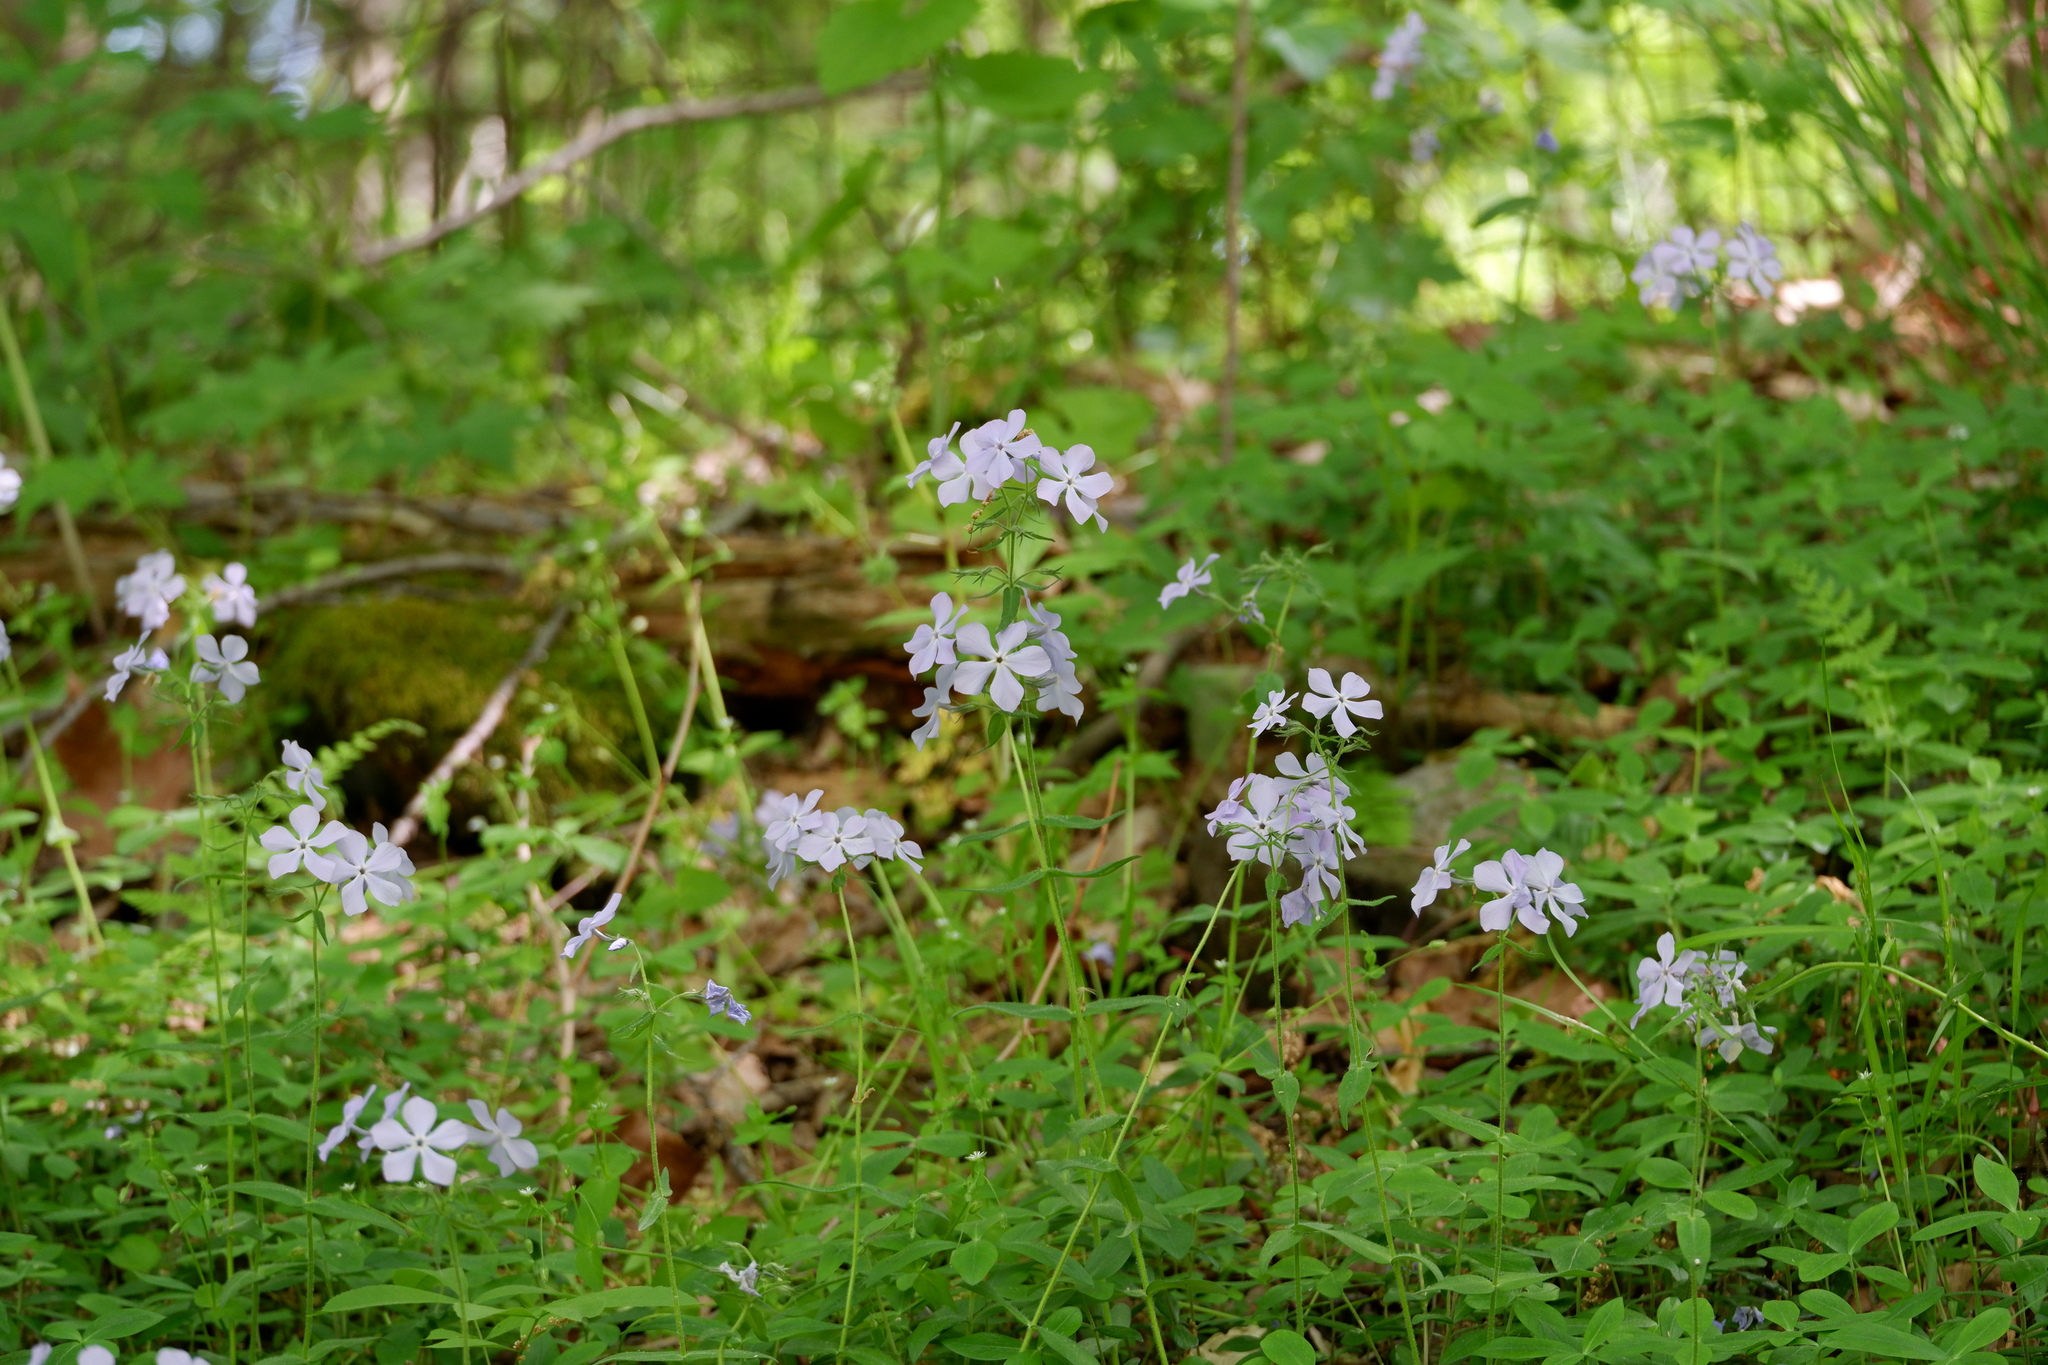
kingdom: Plantae
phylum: Tracheophyta
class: Magnoliopsida
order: Ericales
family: Polemoniaceae
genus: Phlox
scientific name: Phlox divaricata
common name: Blue phlox
